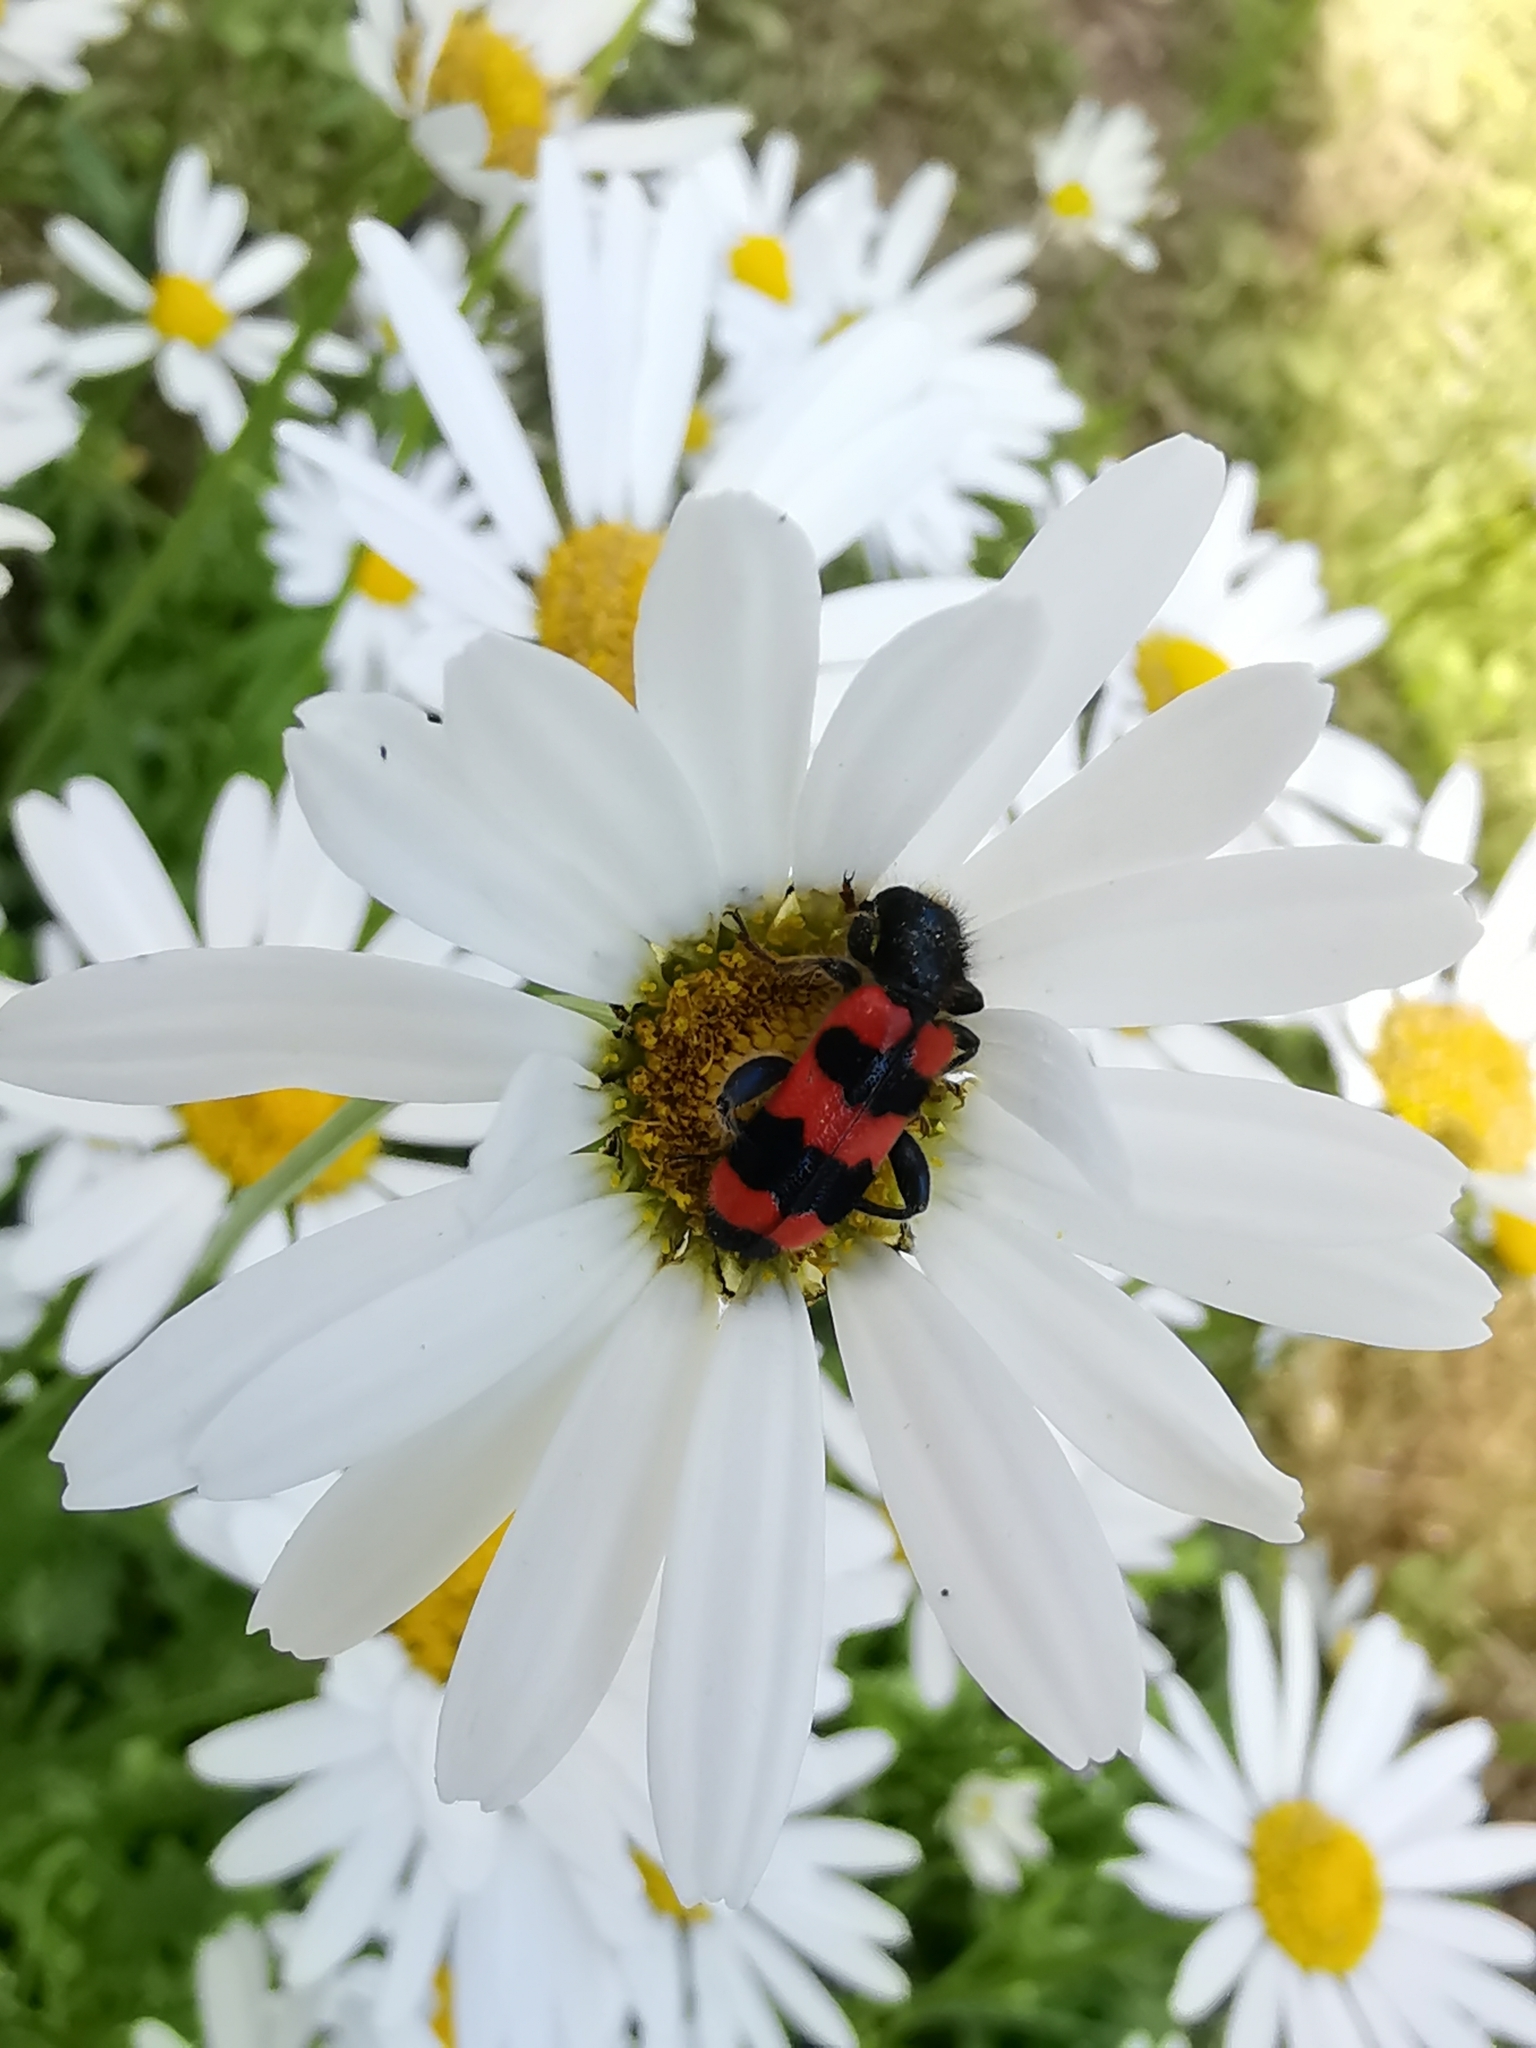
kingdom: Animalia
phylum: Arthropoda
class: Insecta
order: Coleoptera
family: Cleridae
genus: Trichodes
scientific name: Trichodes apiarius
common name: Bee-eating beetle
